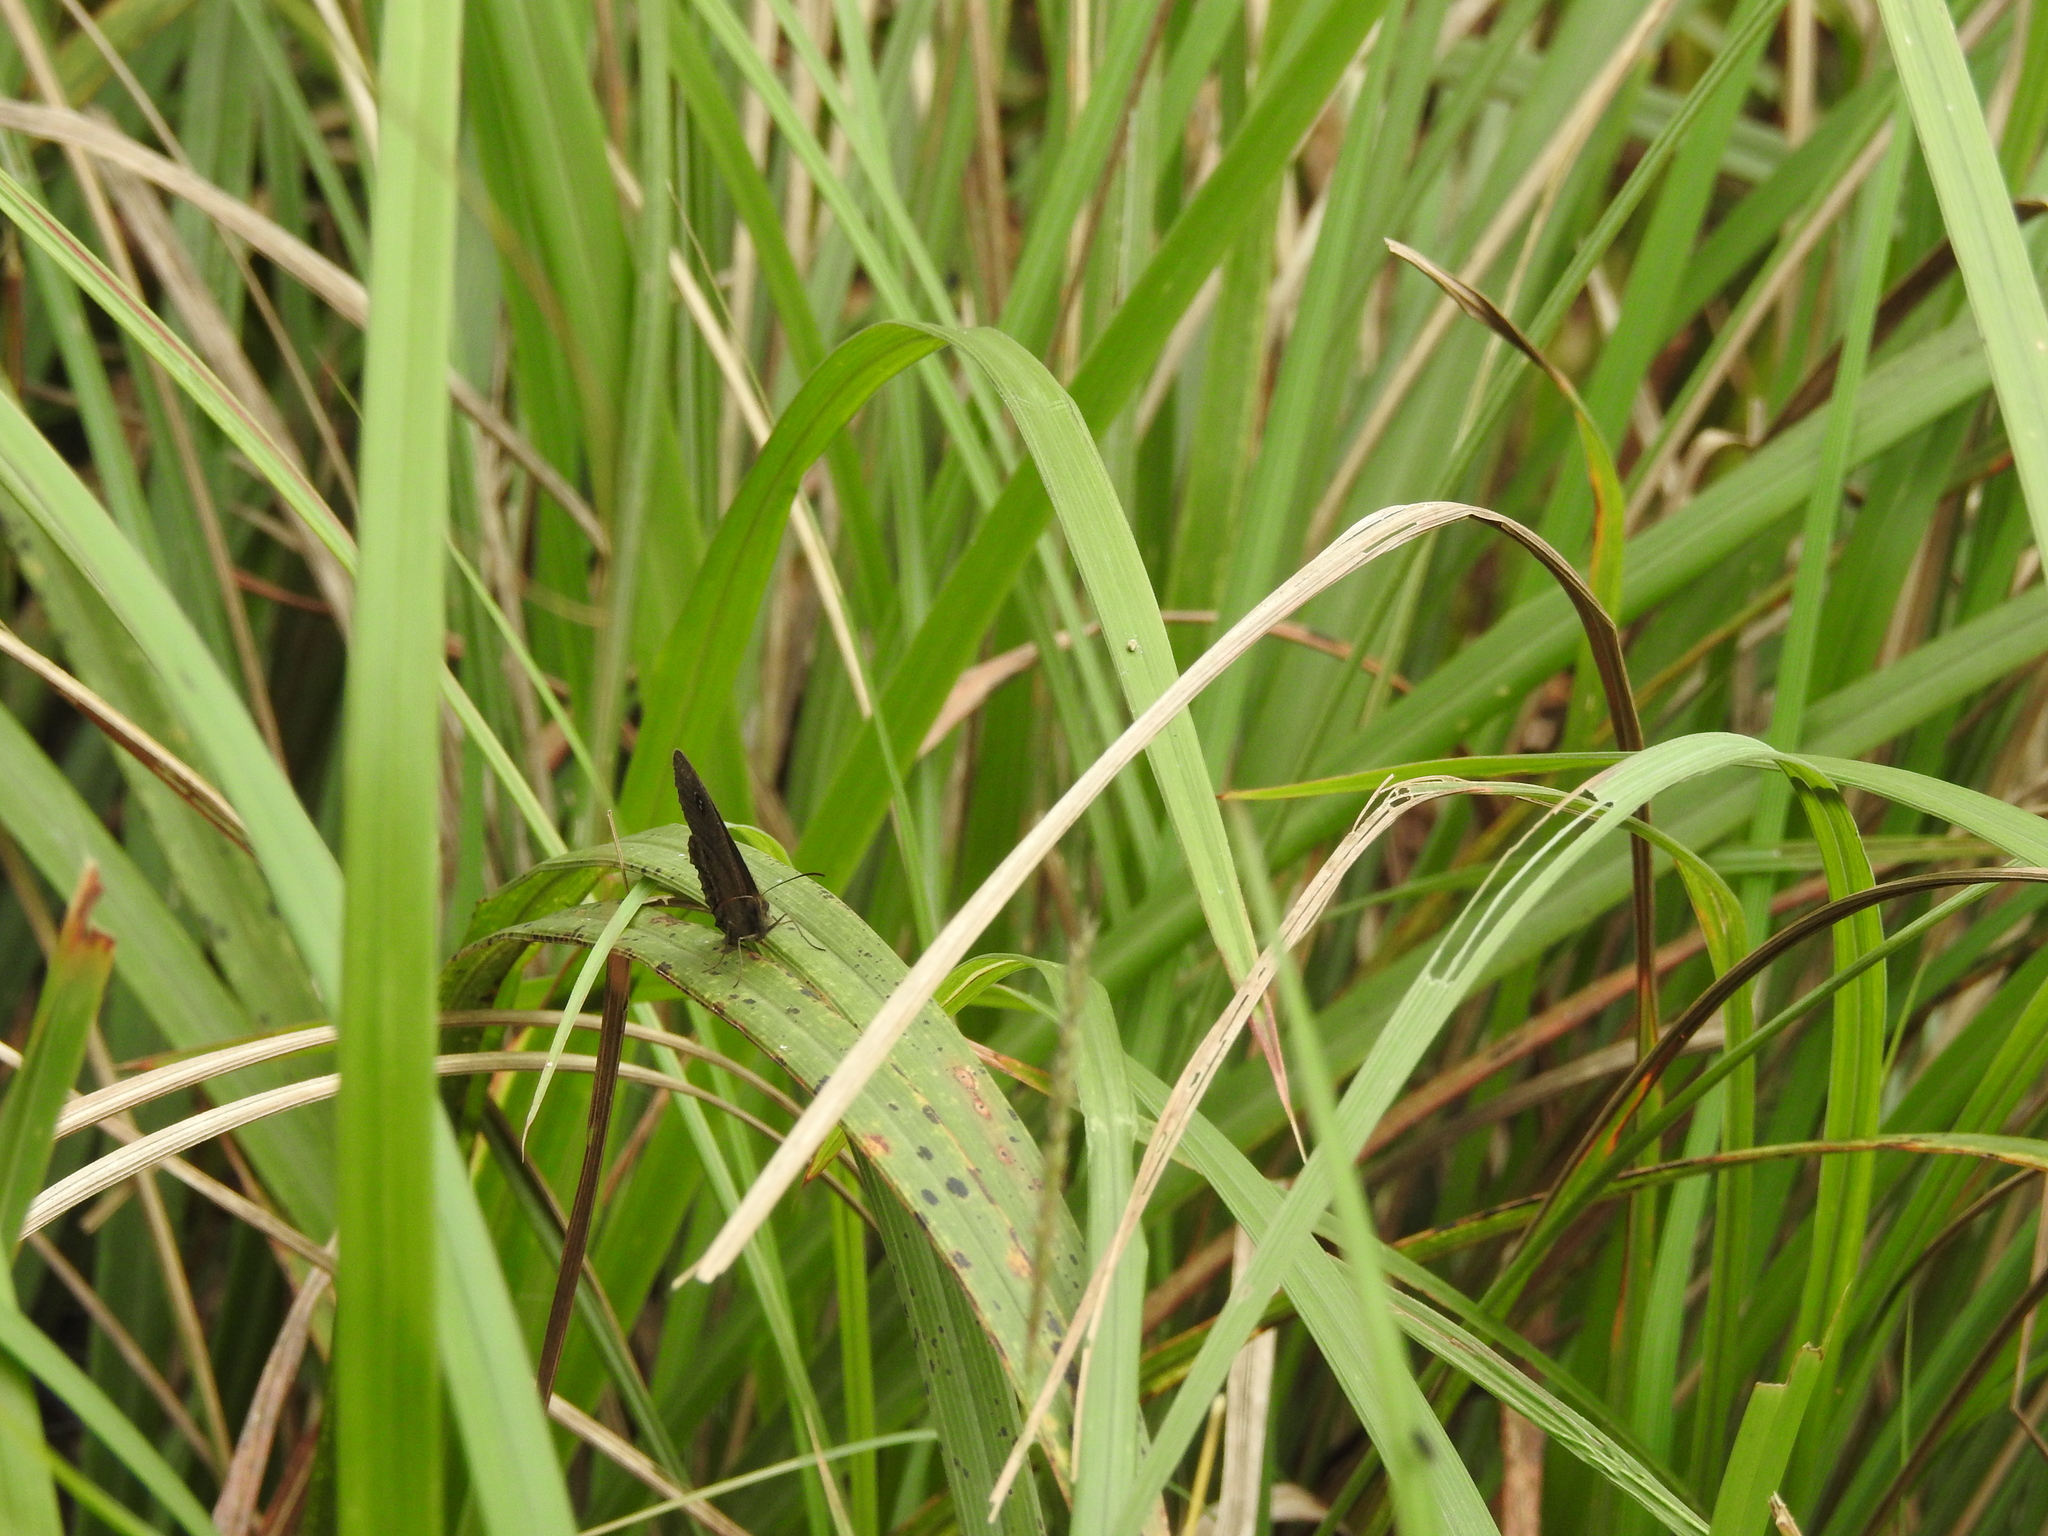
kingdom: Animalia
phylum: Arthropoda
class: Insecta
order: Lepidoptera
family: Nymphalidae
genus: Ypthima
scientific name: Ypthima ypthimoides
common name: Palni four-ring
